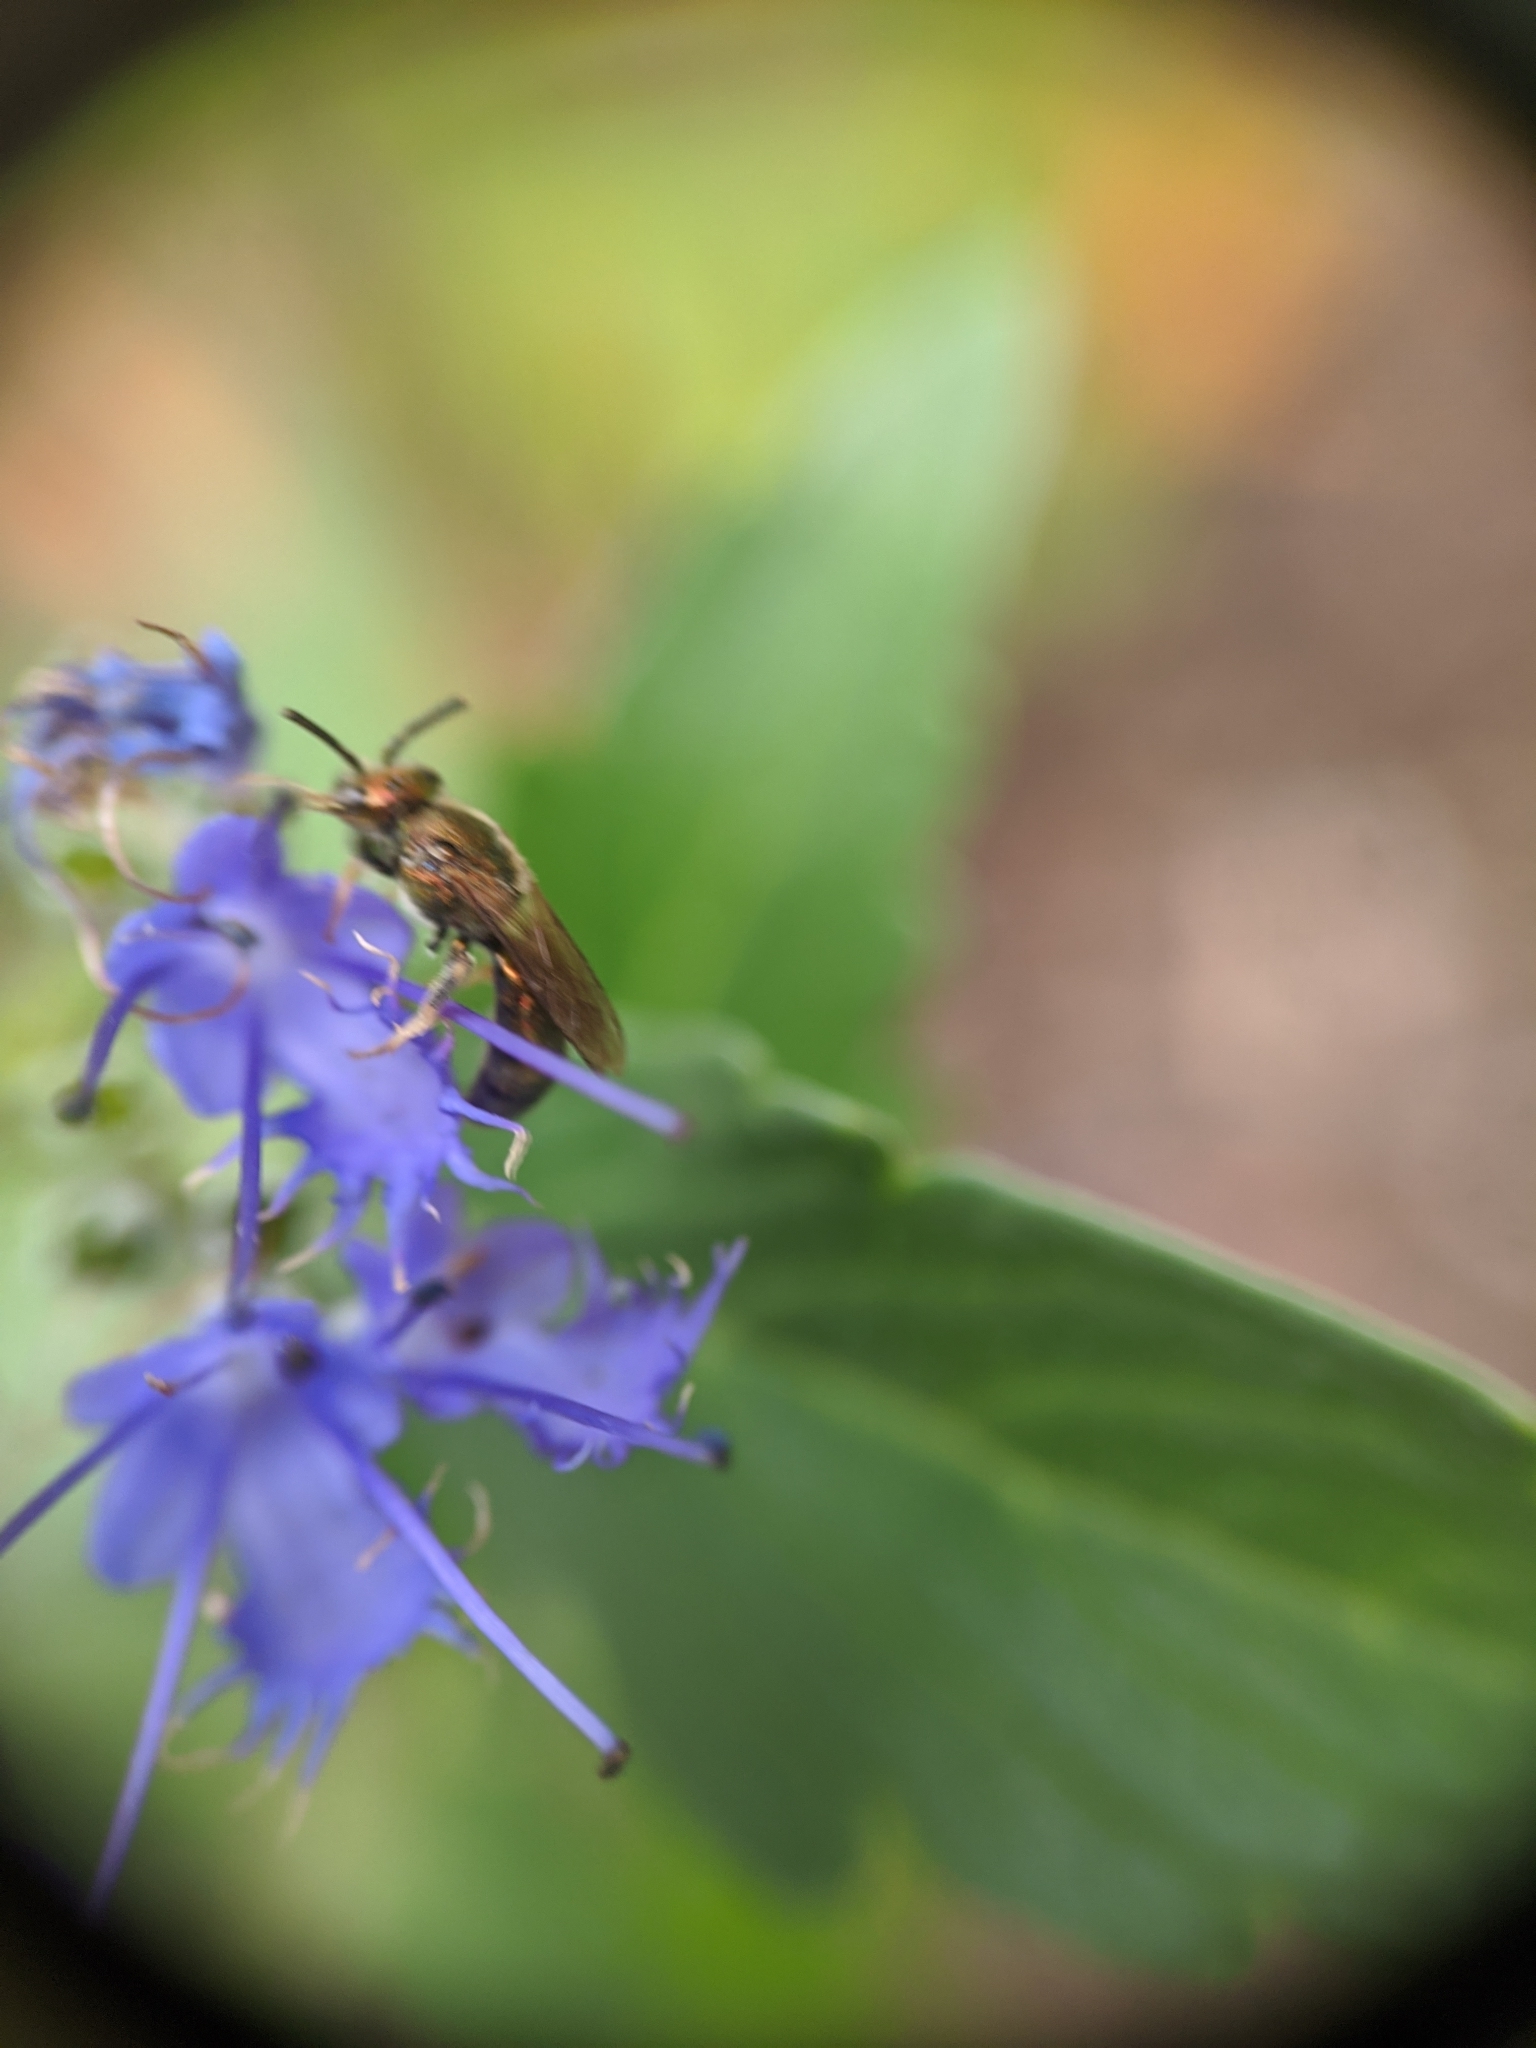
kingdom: Animalia
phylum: Arthropoda
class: Insecta
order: Hymenoptera
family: Halictidae
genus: Dialictus
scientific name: Dialictus
